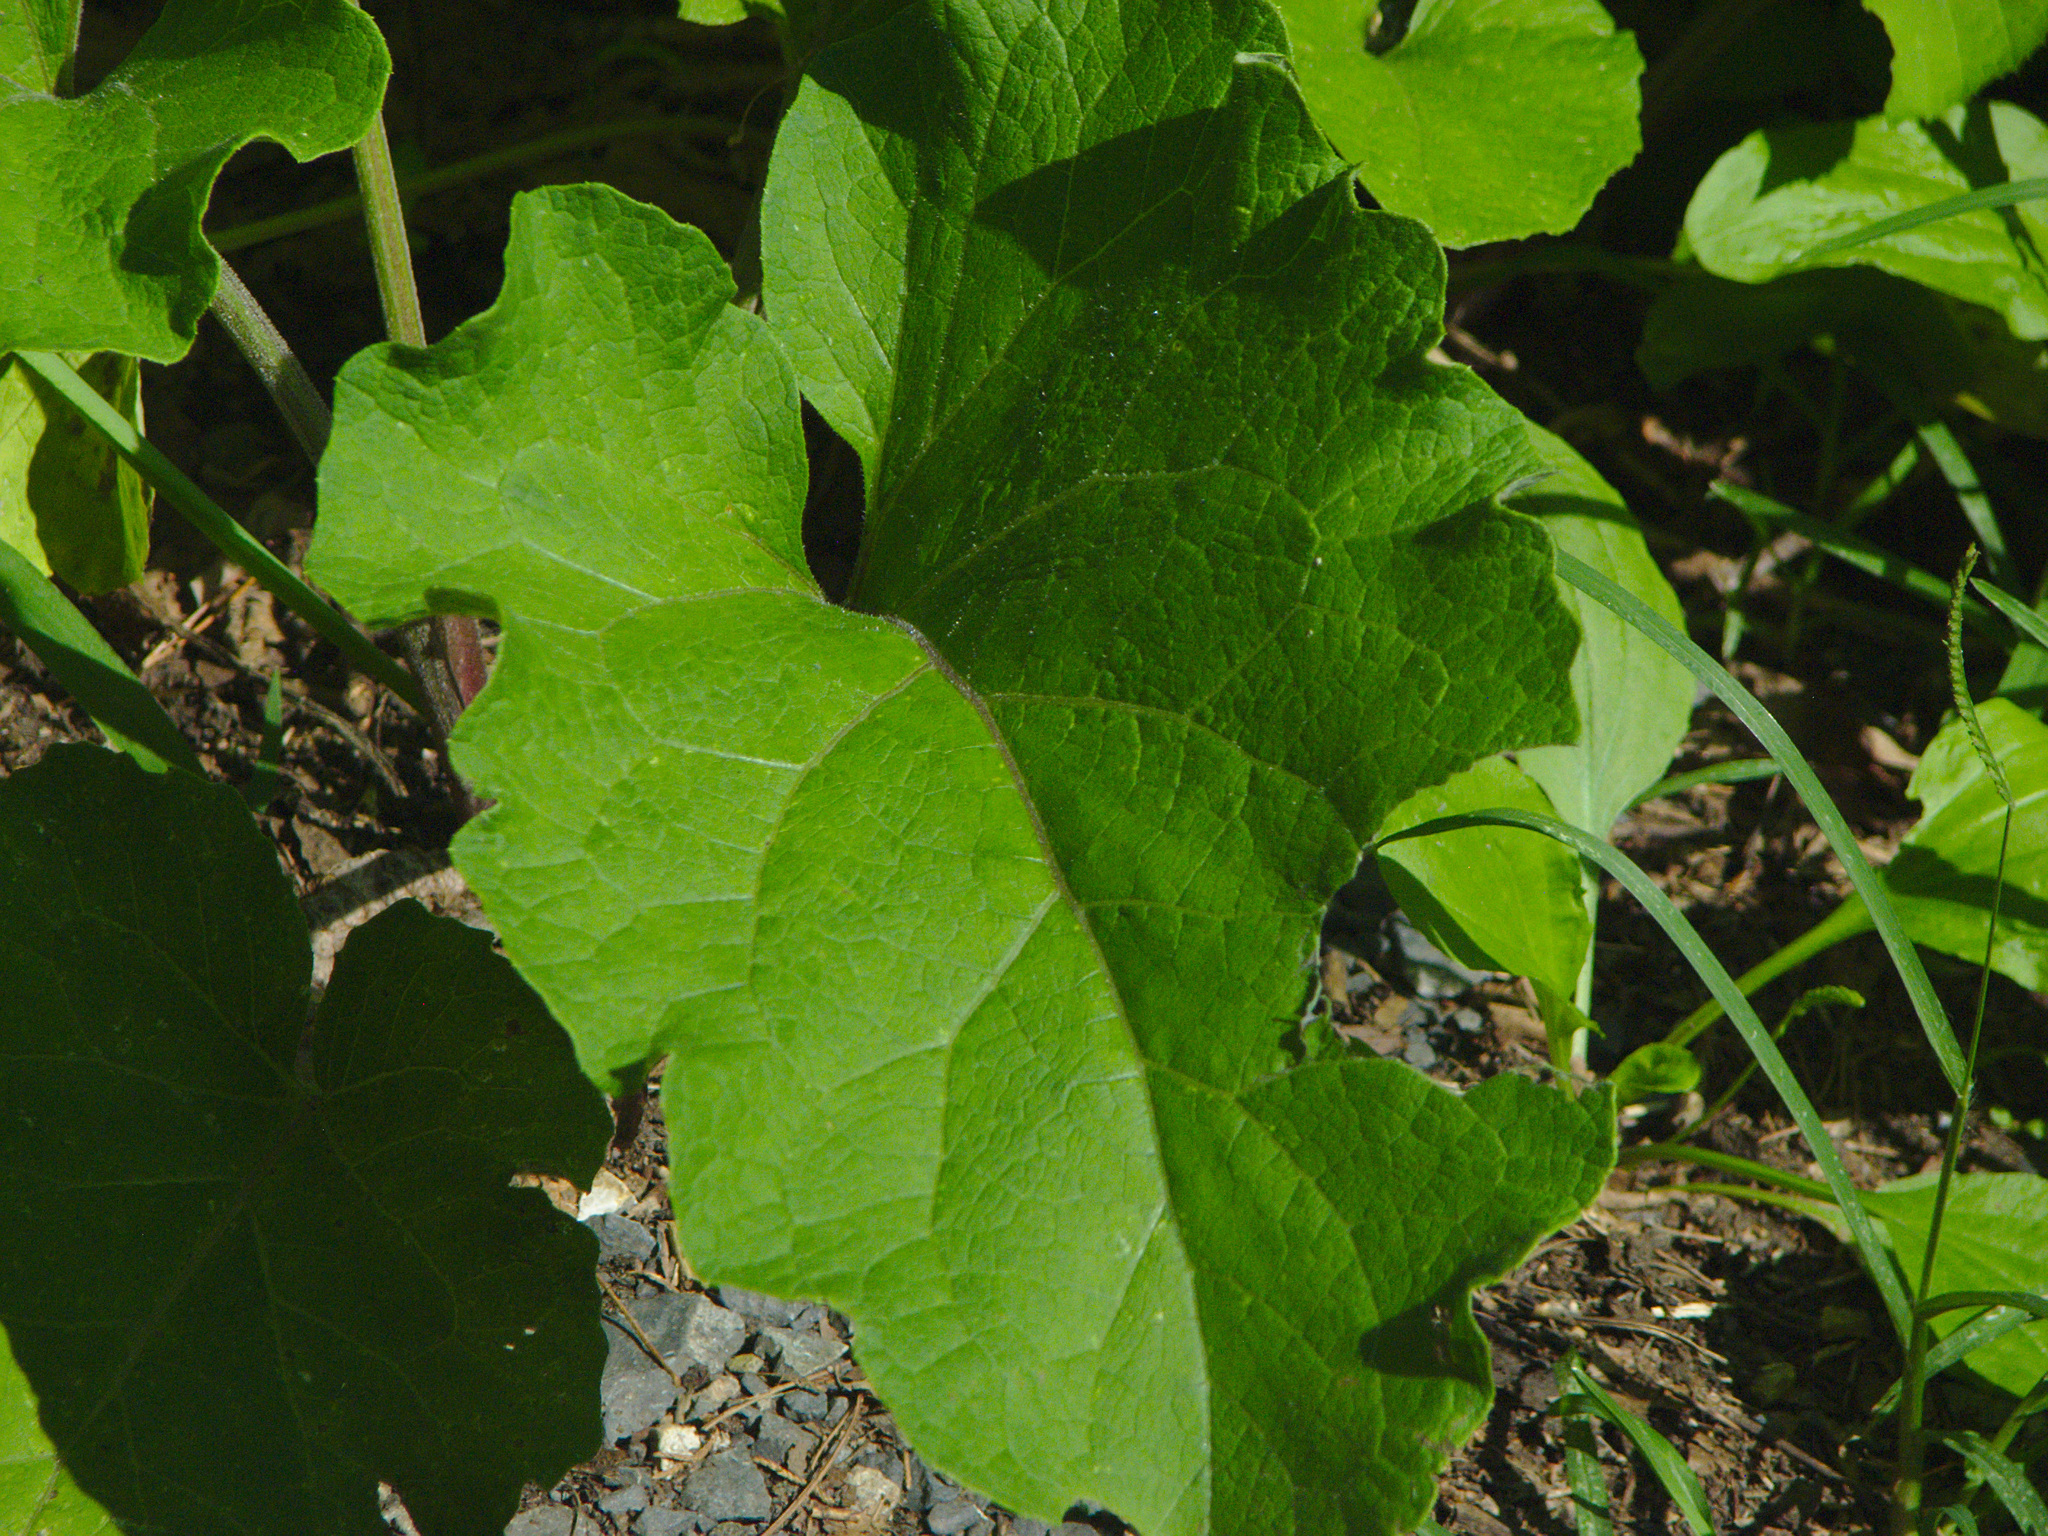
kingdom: Plantae
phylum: Tracheophyta
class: Magnoliopsida
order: Asterales
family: Asteraceae
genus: Arctium
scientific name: Arctium
